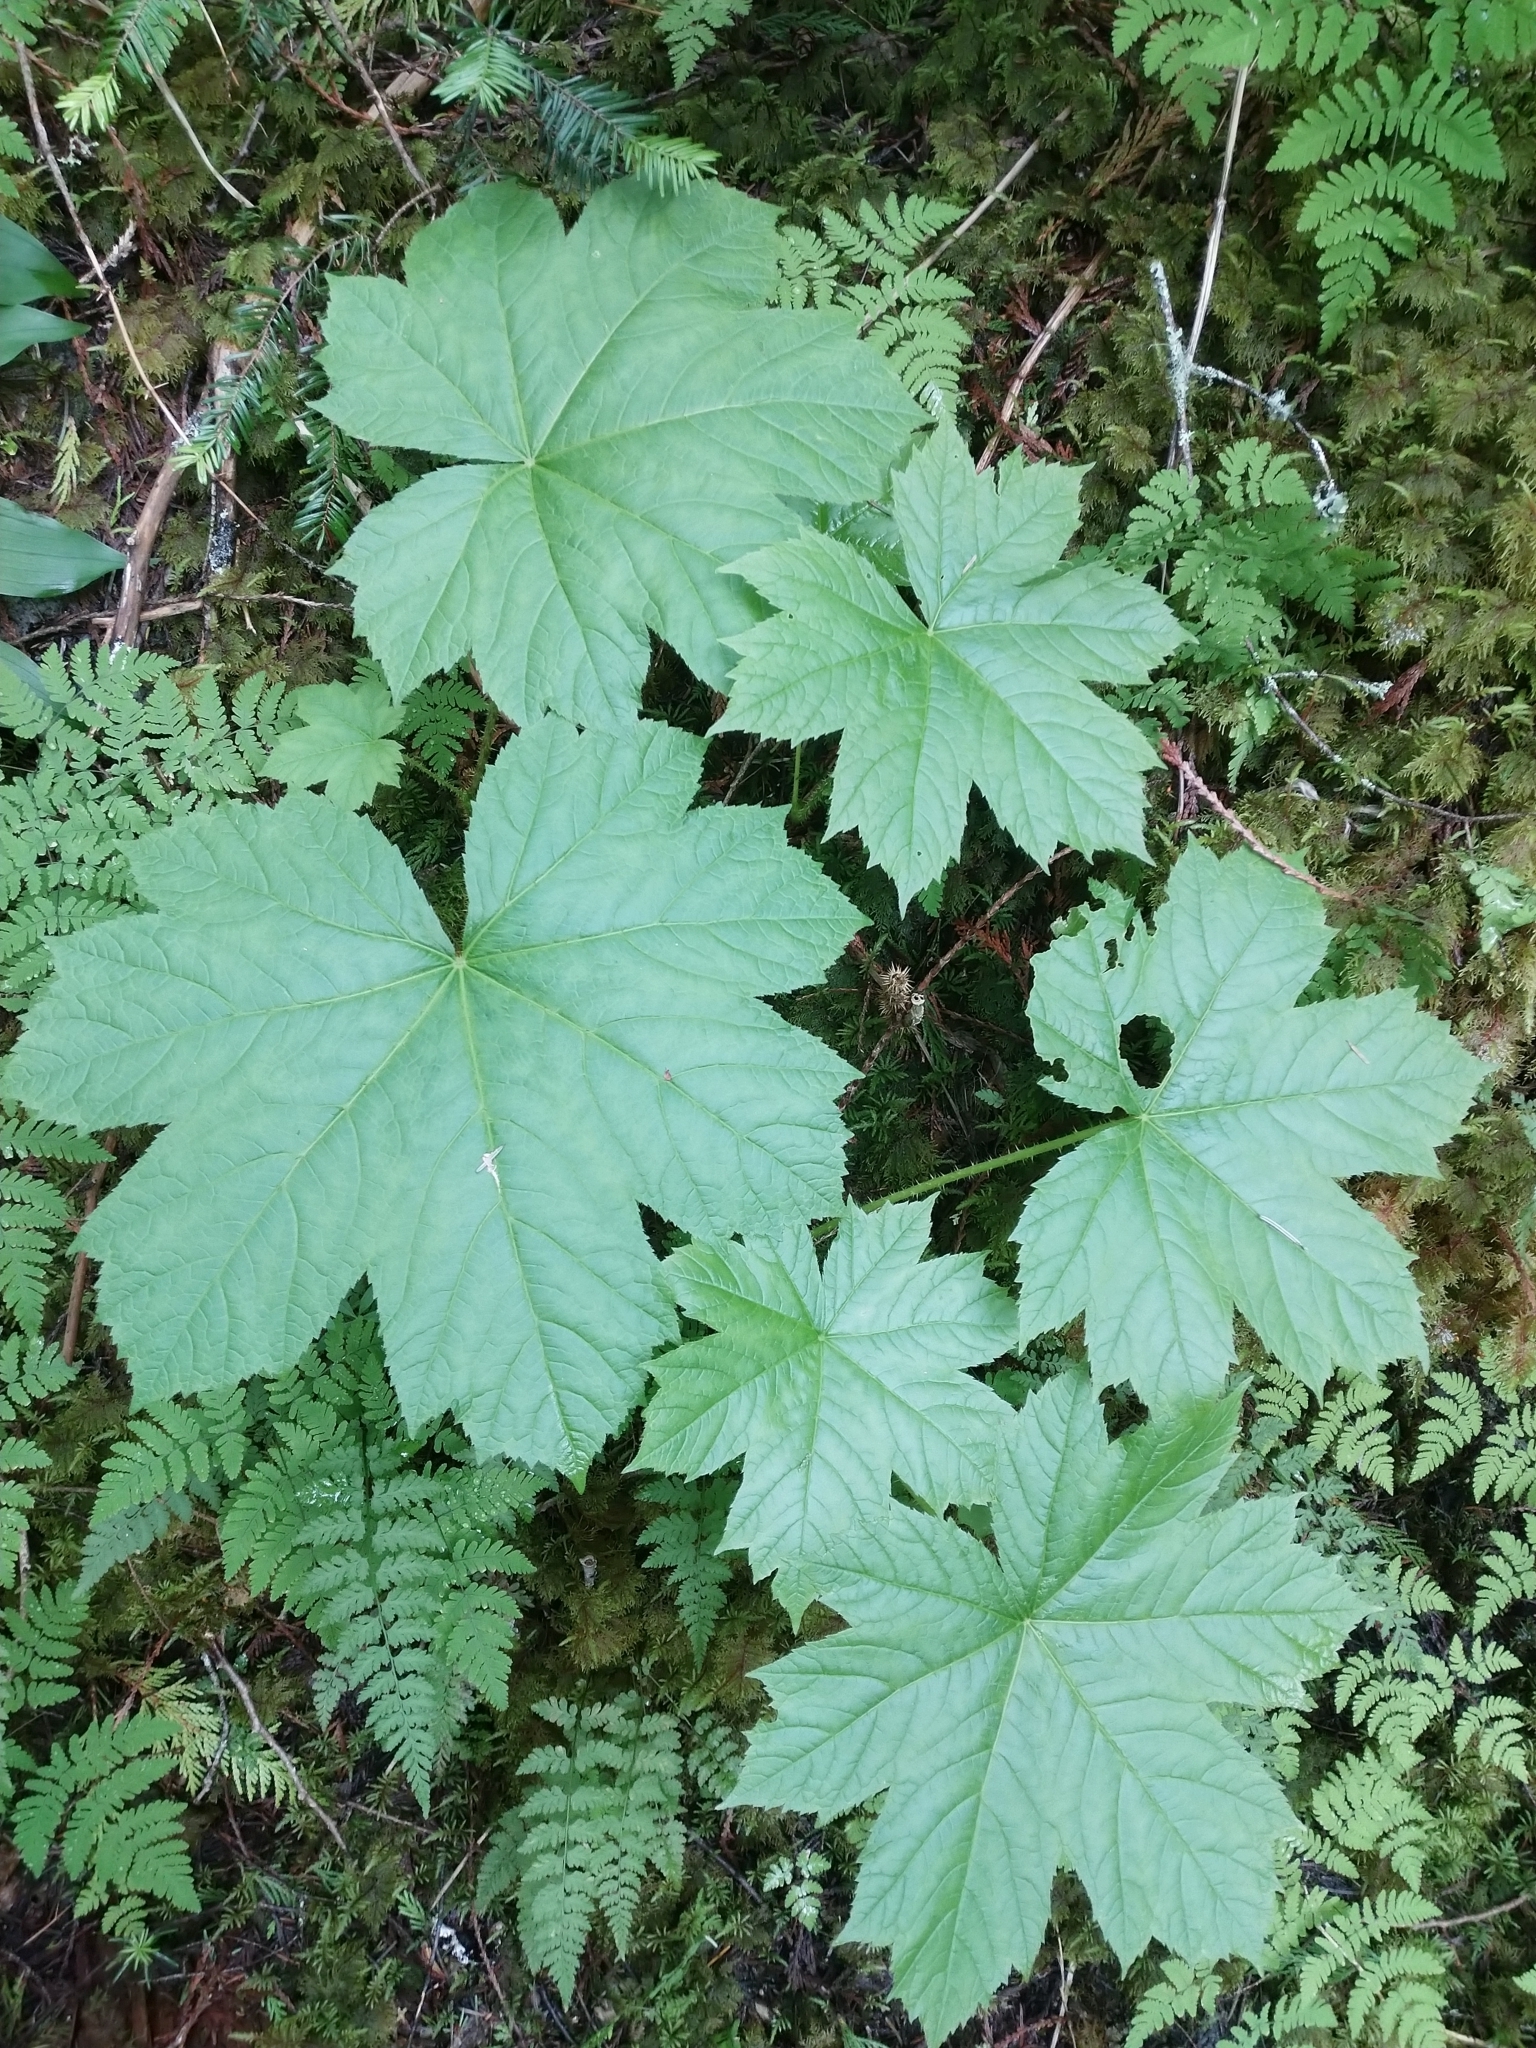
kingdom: Plantae
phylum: Tracheophyta
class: Magnoliopsida
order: Apiales
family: Araliaceae
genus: Oplopanax
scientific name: Oplopanax horridus
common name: Devil's walking-stick
